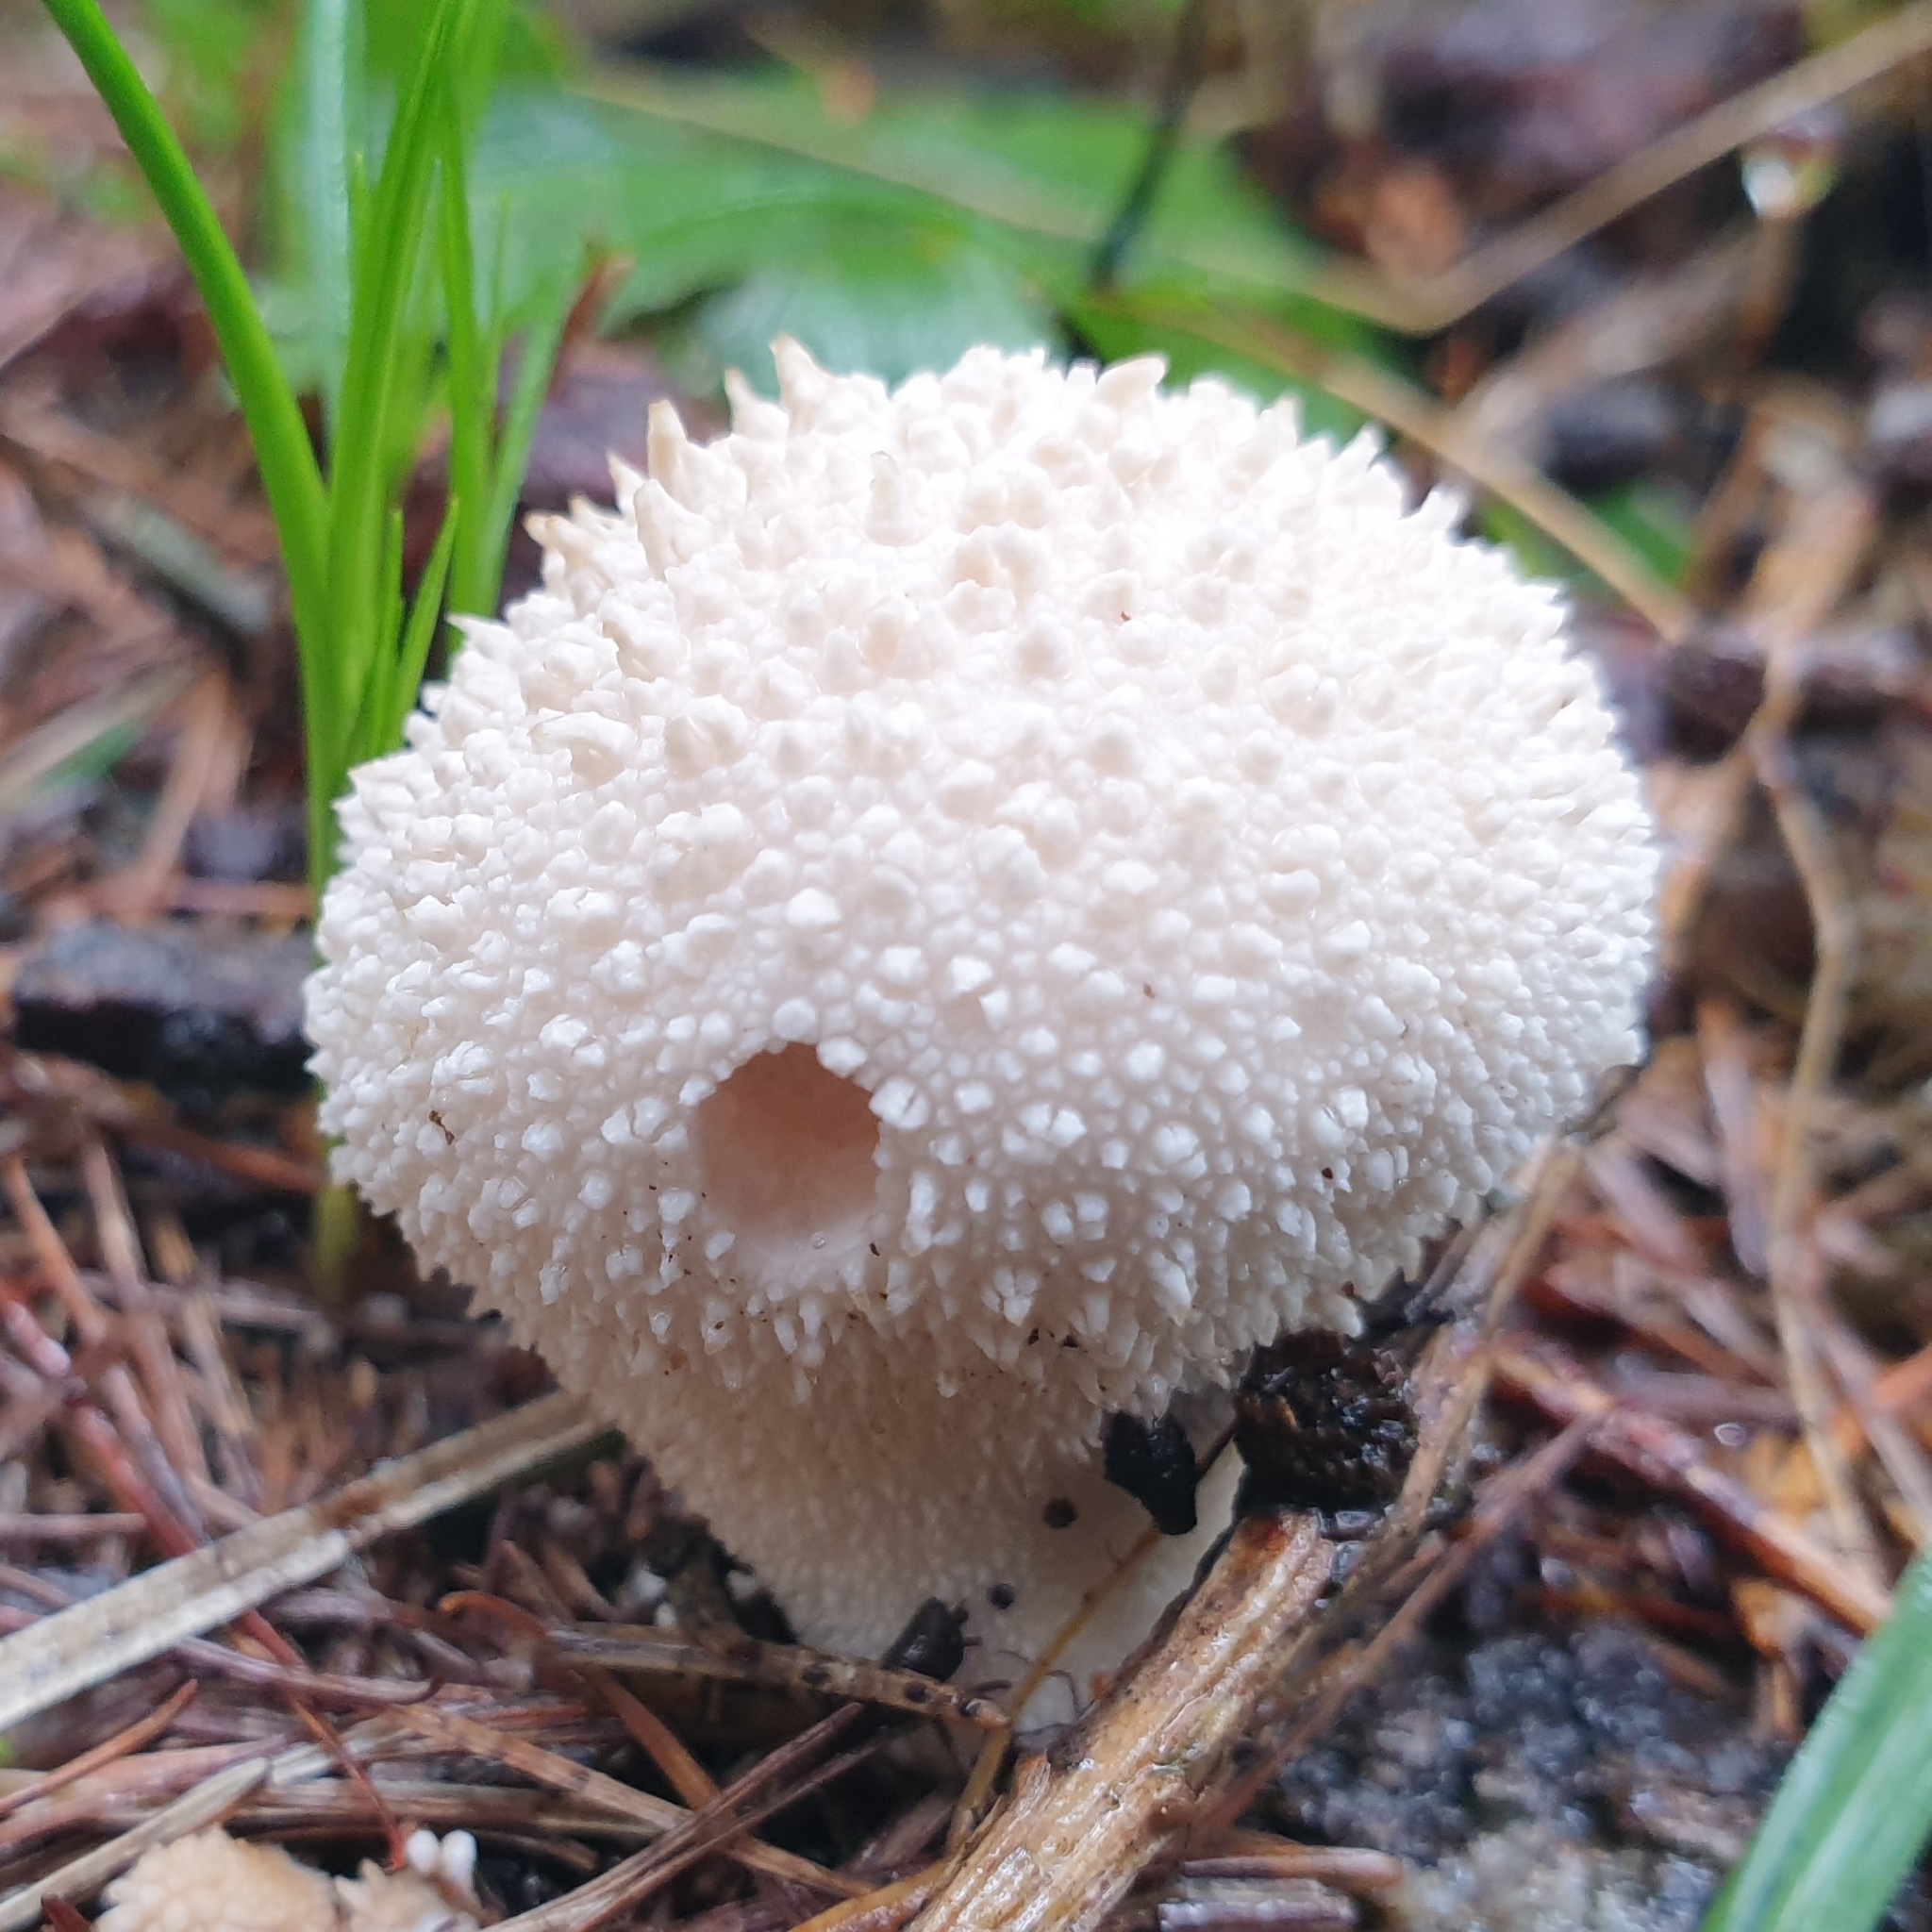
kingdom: Fungi
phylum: Basidiomycota
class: Agaricomycetes
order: Agaricales
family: Lycoperdaceae
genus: Lycoperdon
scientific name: Lycoperdon perlatum
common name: Common puffball
